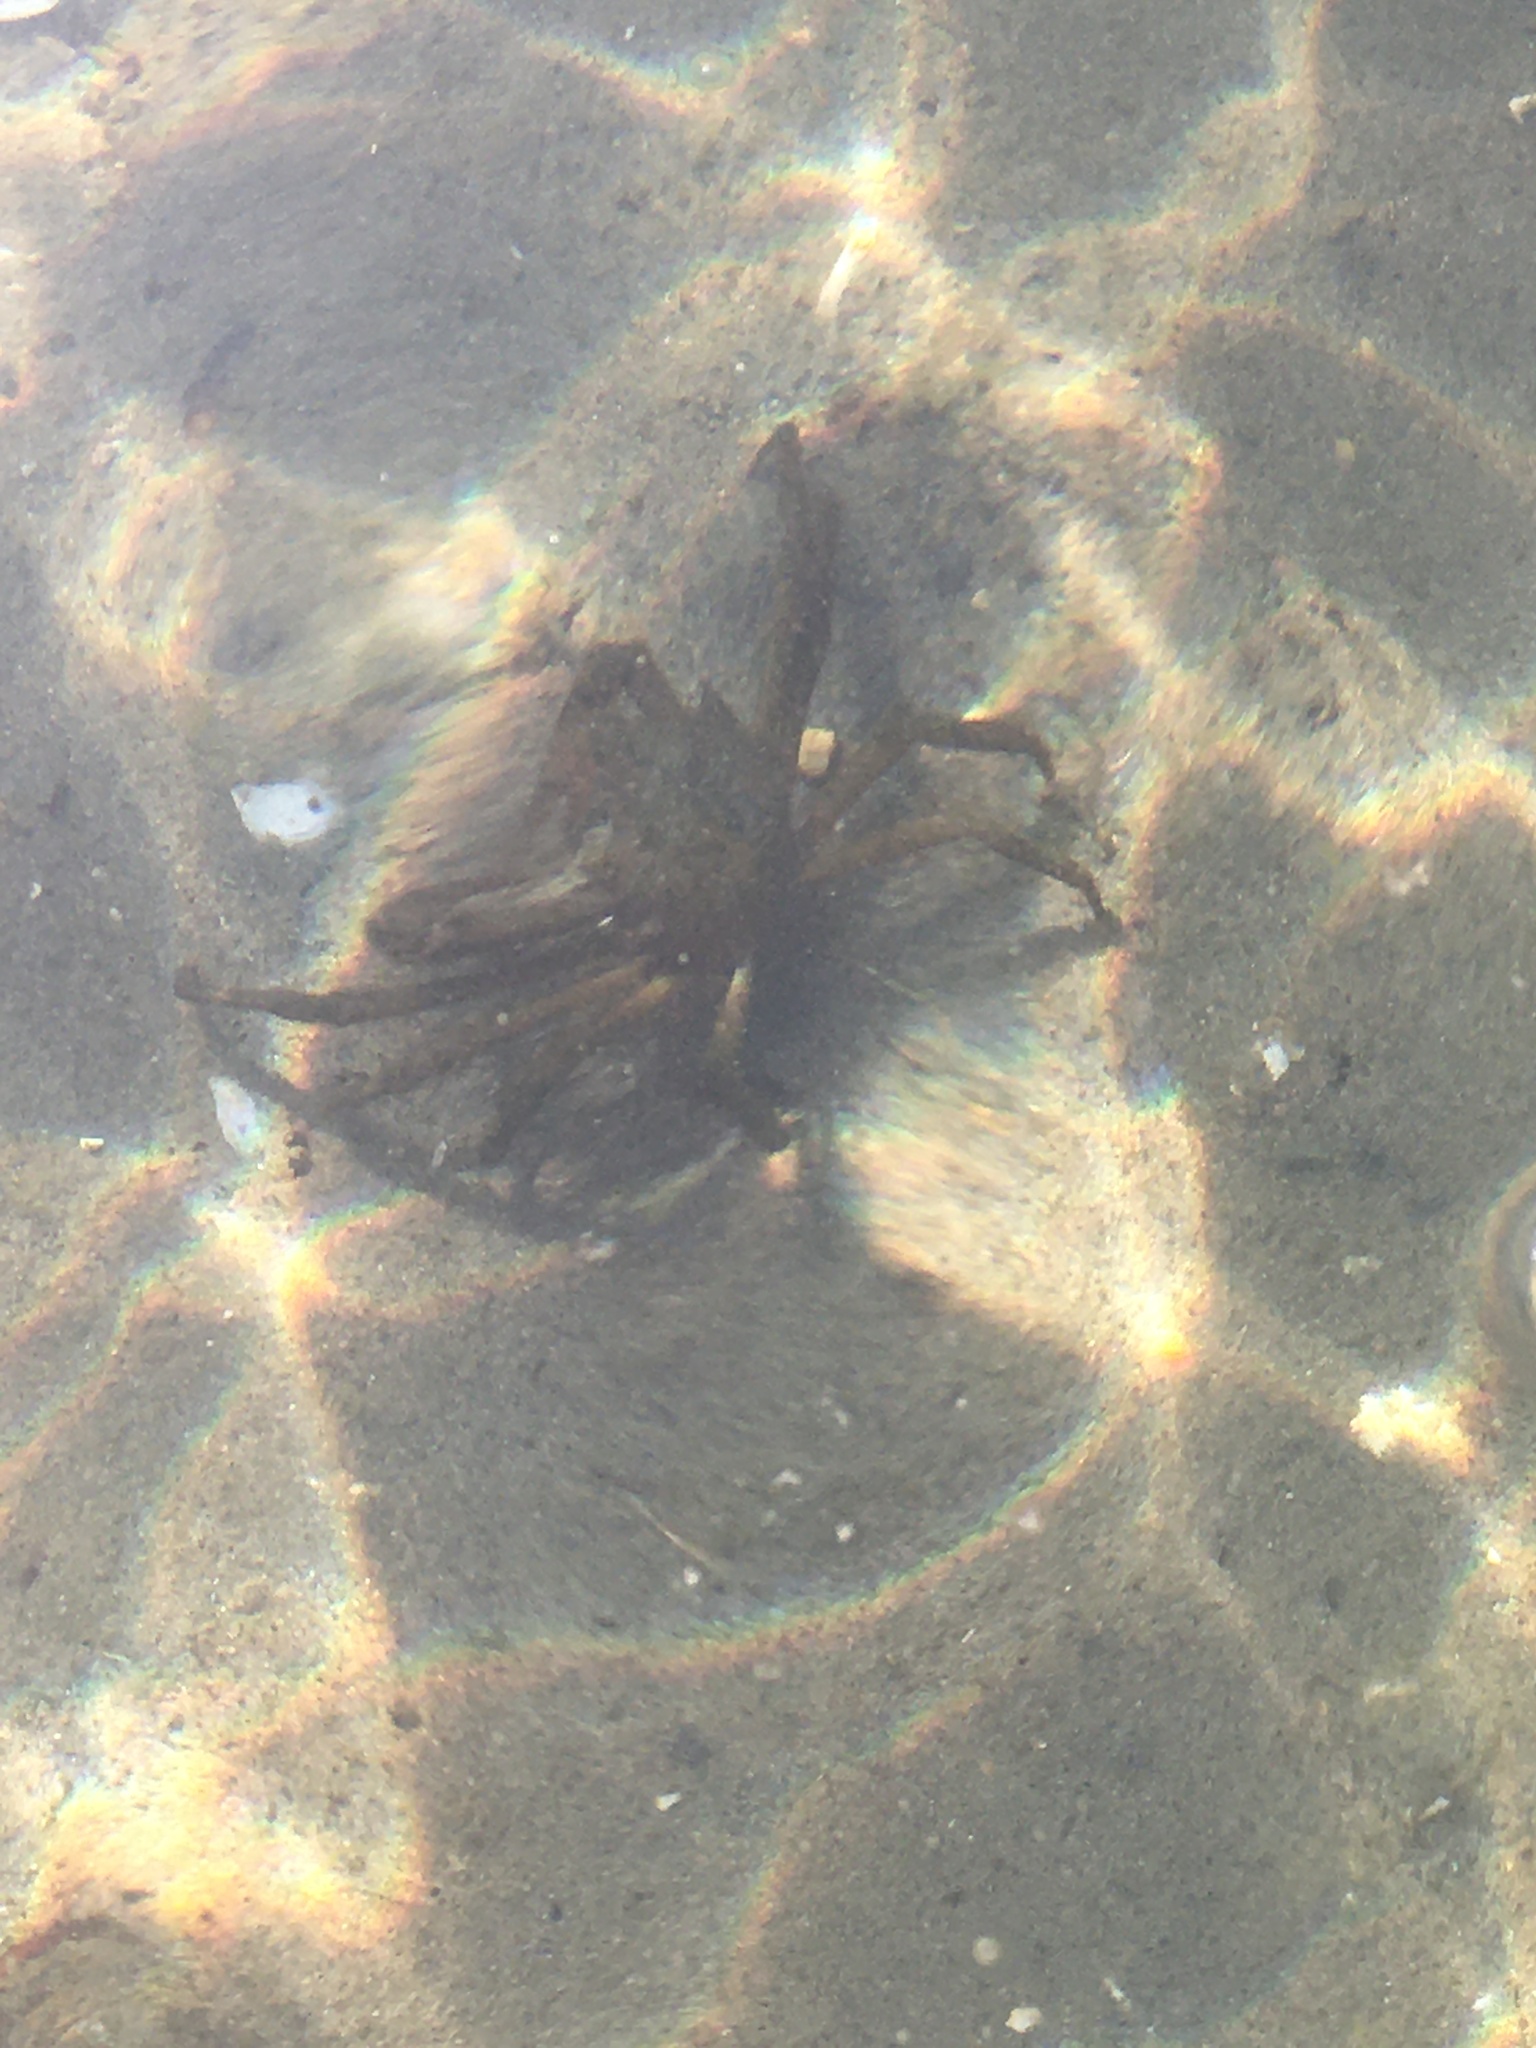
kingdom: Animalia
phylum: Arthropoda
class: Malacostraca
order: Decapoda
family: Epialtidae
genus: Pugettia
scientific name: Pugettia producta
